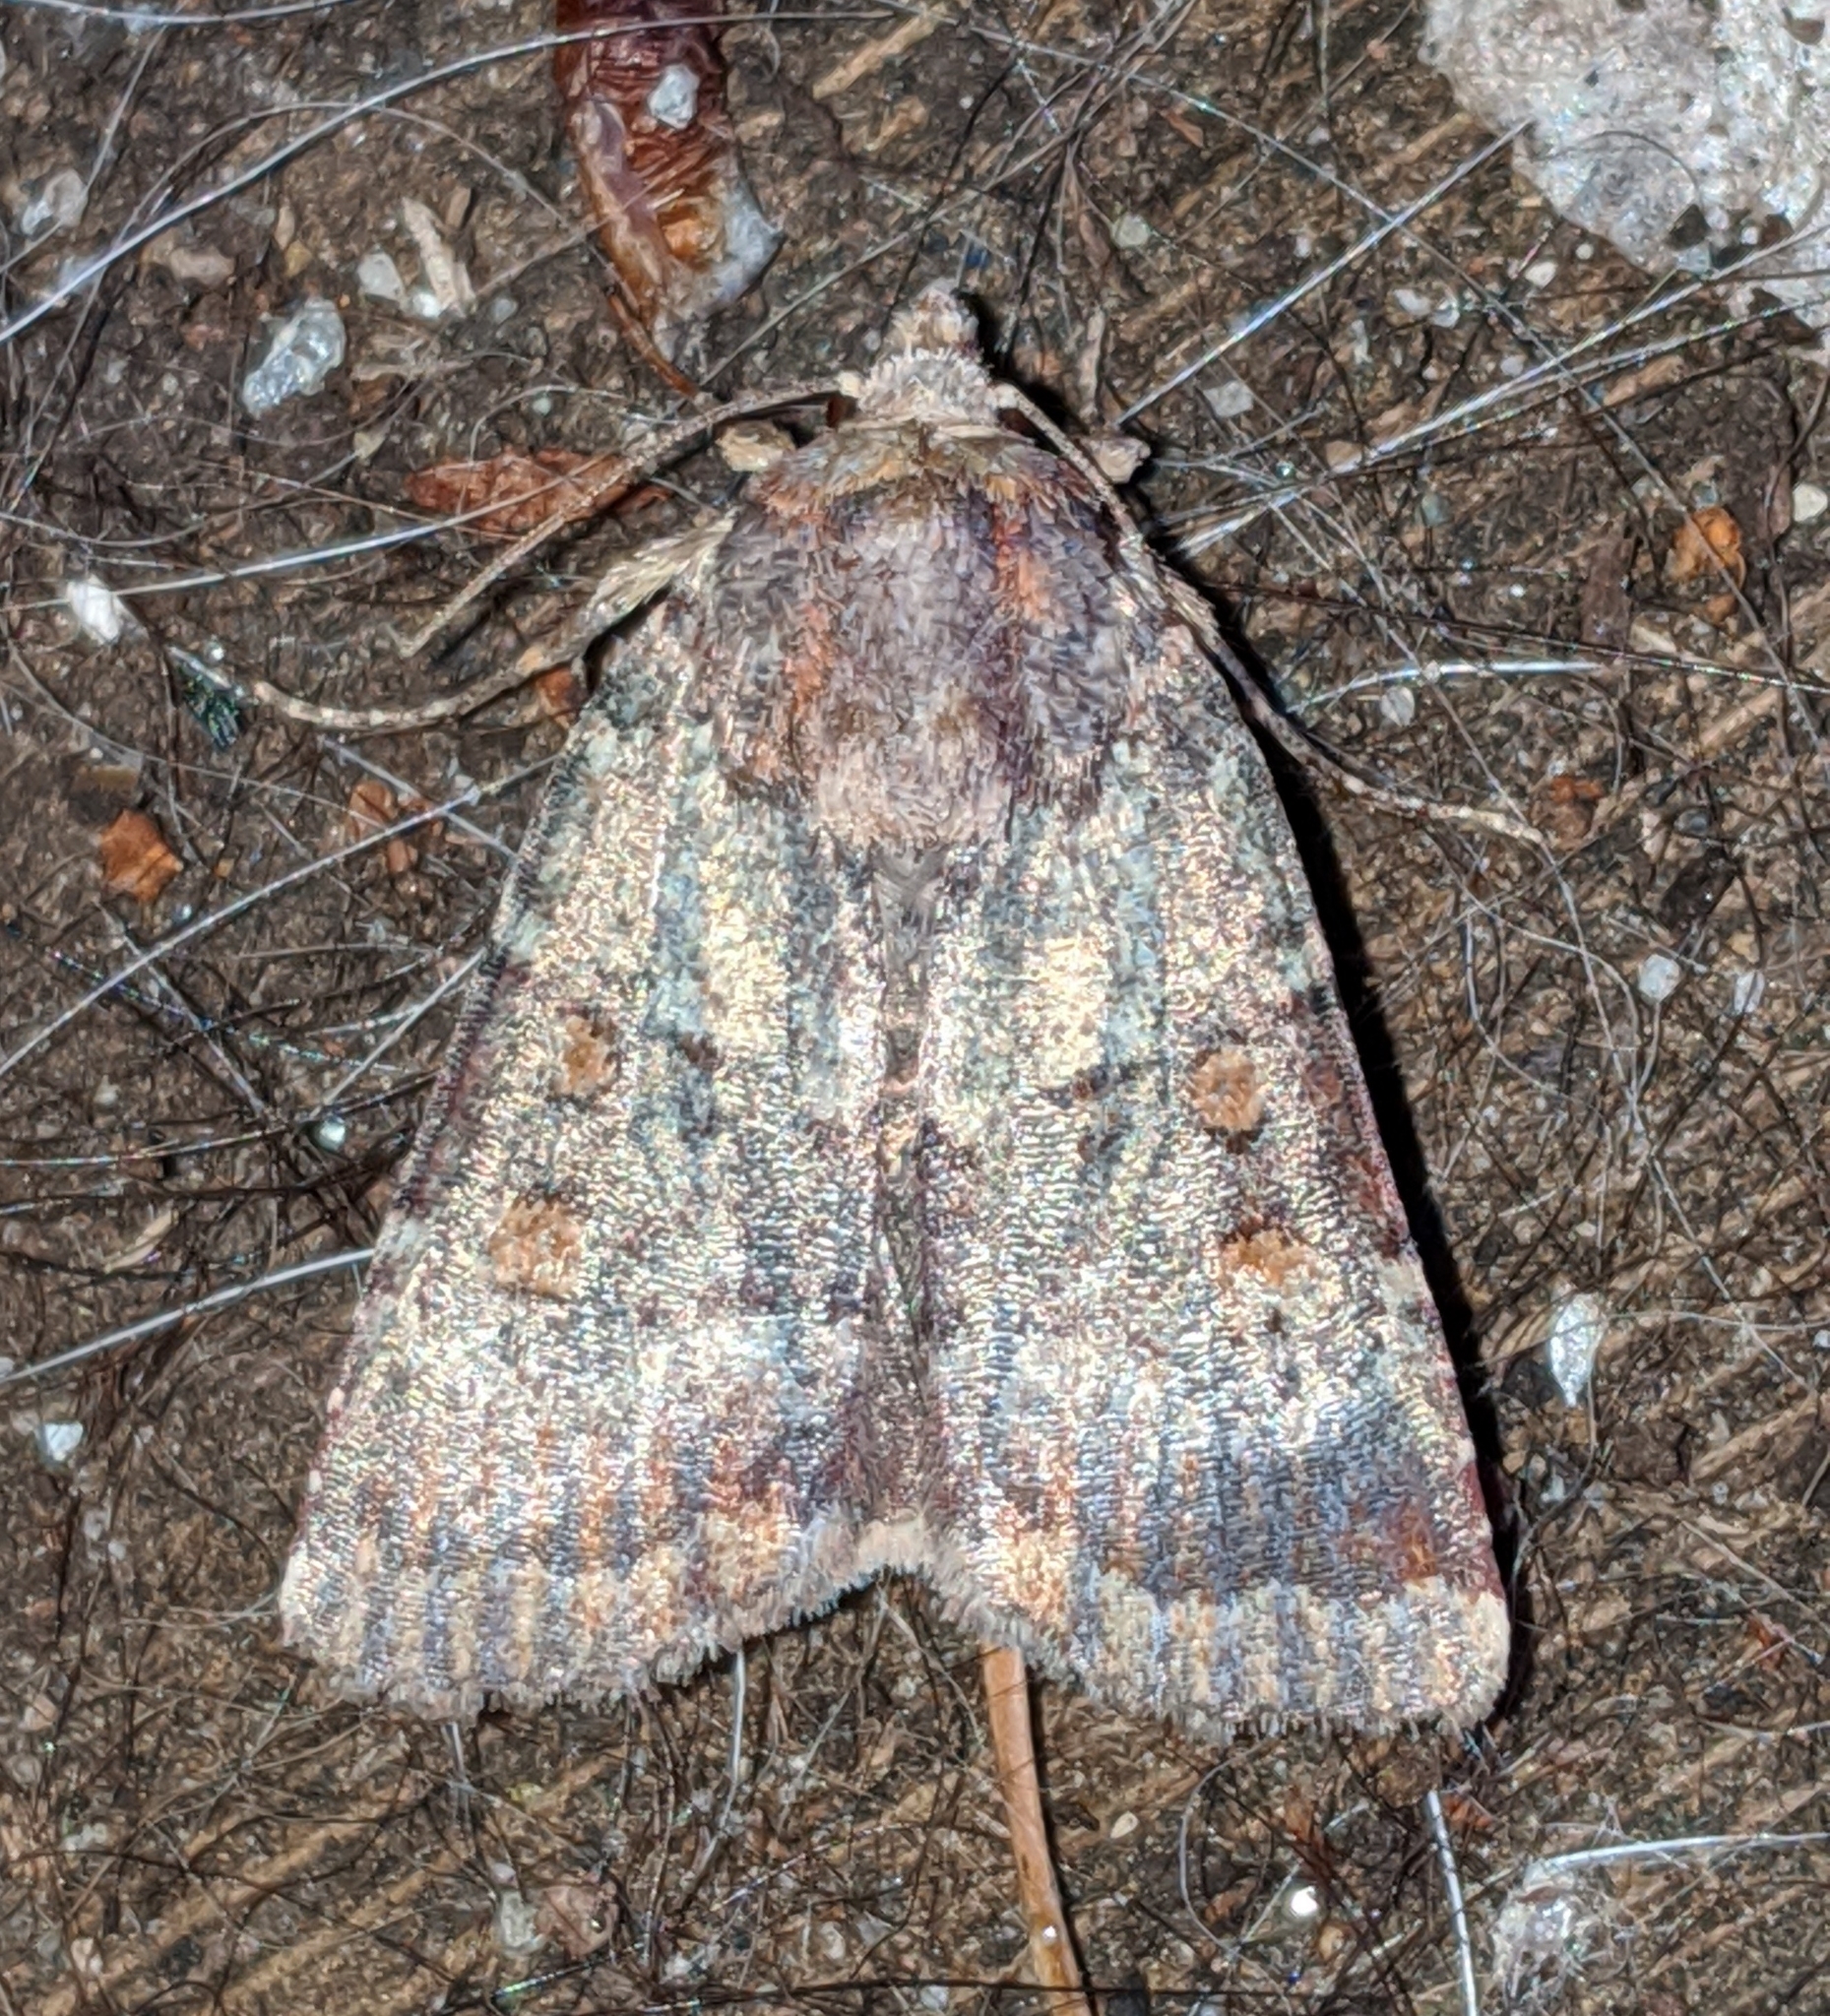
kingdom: Animalia
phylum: Arthropoda
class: Insecta
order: Lepidoptera
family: Noctuidae
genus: Abagrotis
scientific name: Abagrotis pulchrata
